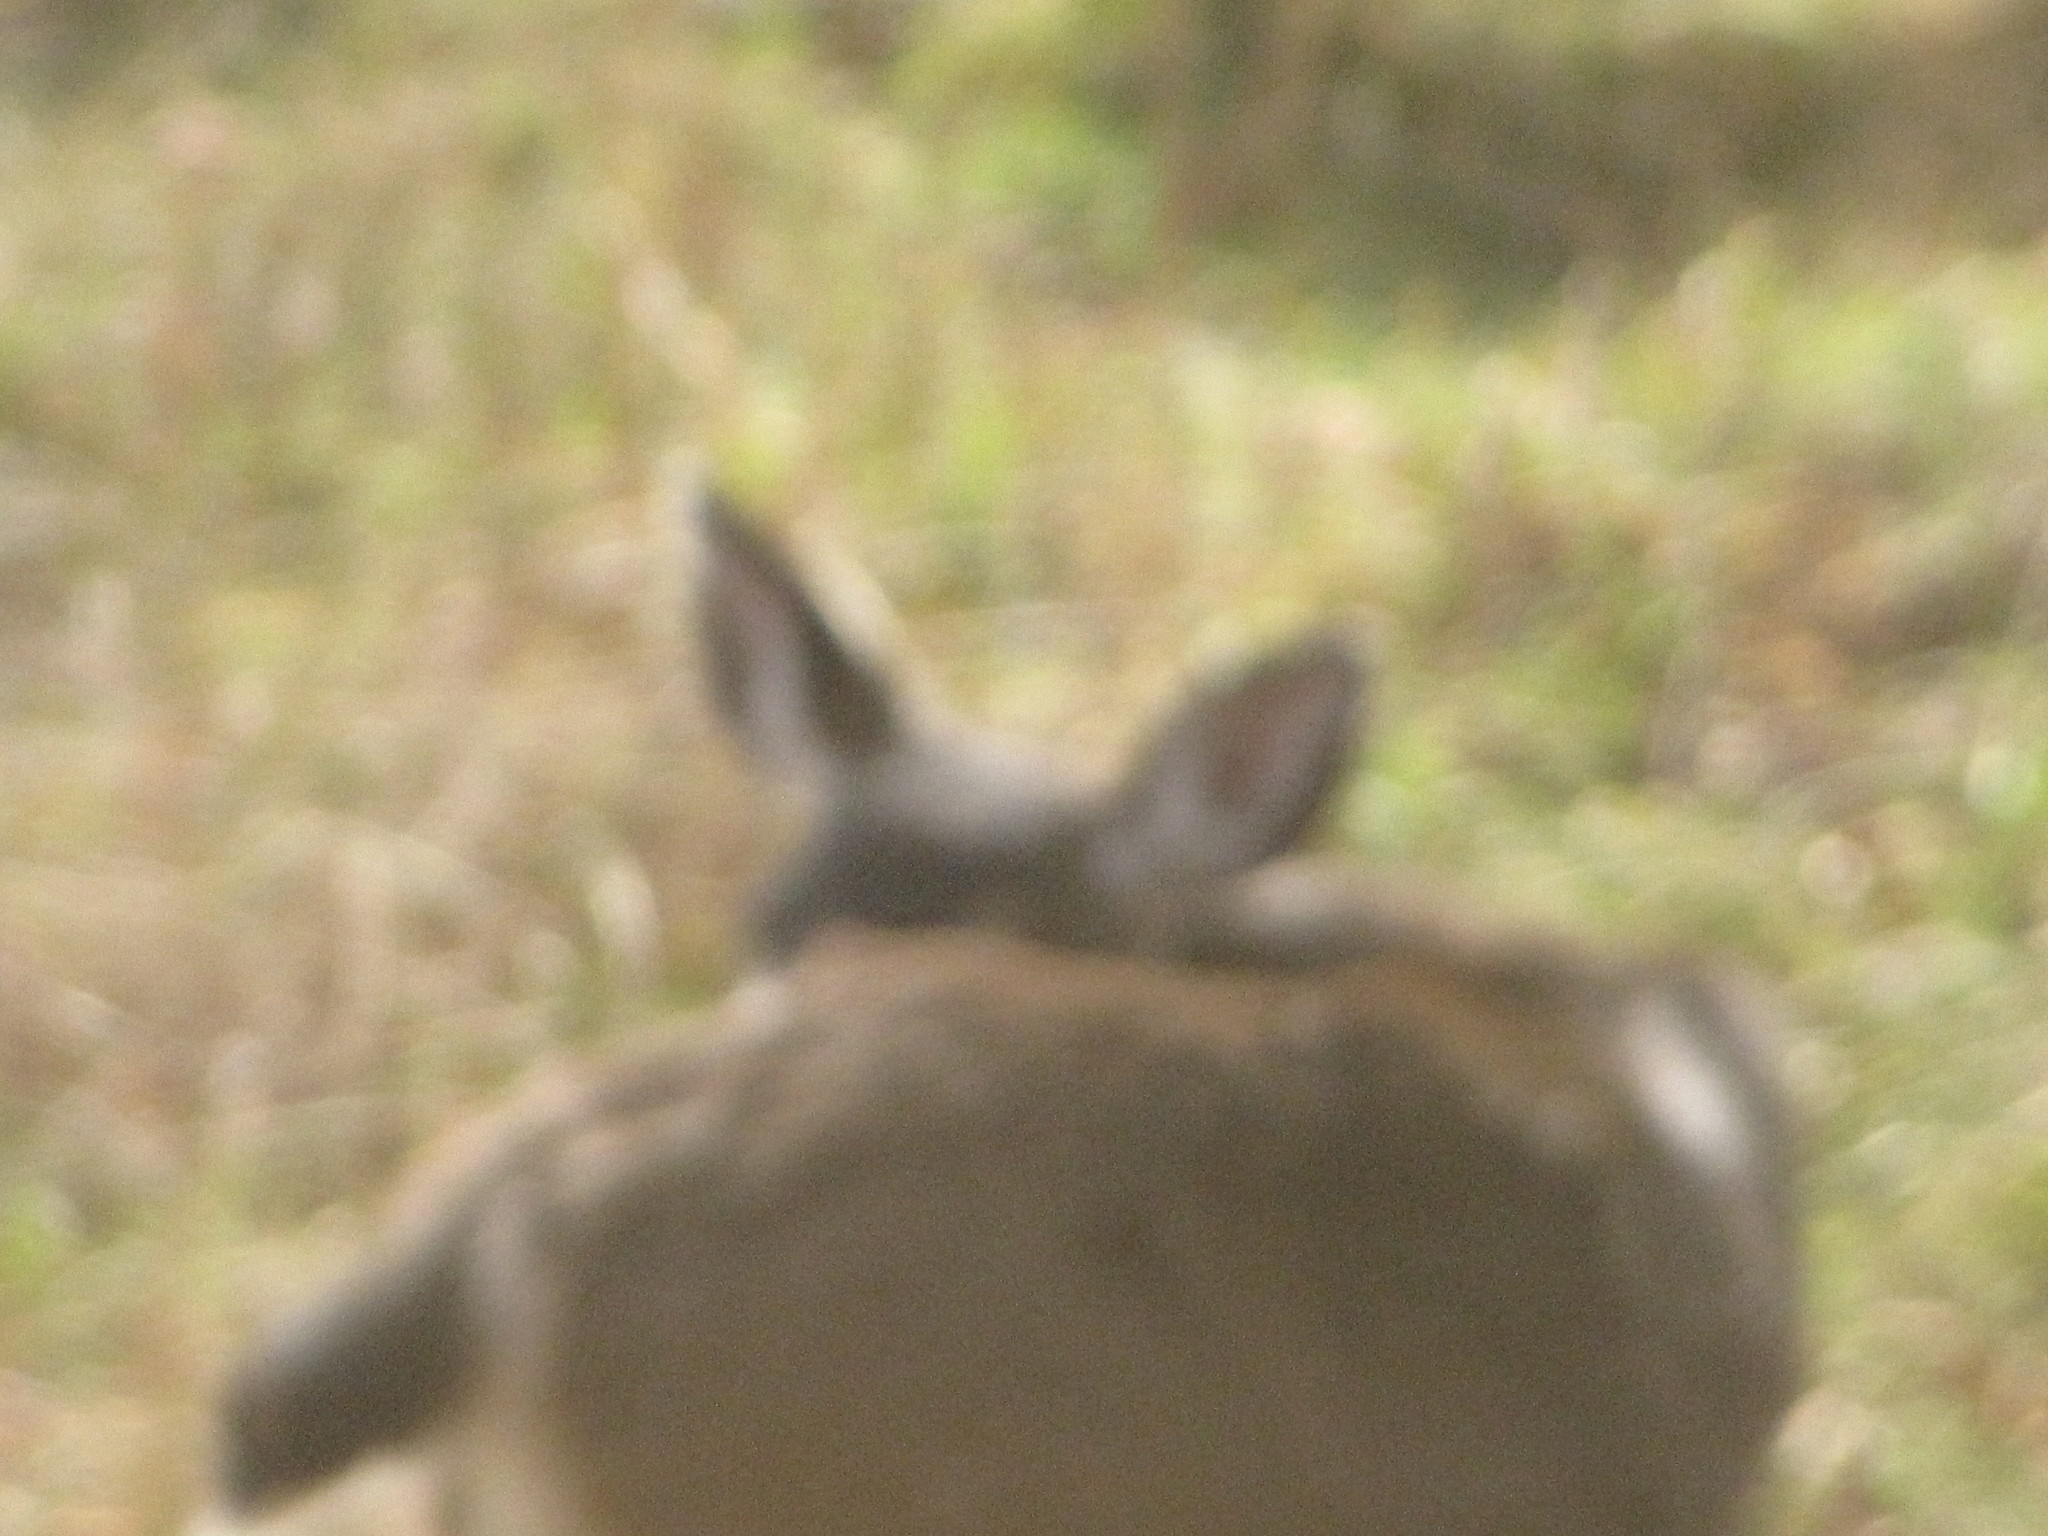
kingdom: Animalia
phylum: Chordata
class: Mammalia
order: Artiodactyla
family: Cervidae
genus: Odocoileus
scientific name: Odocoileus hemionus
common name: Mule deer
